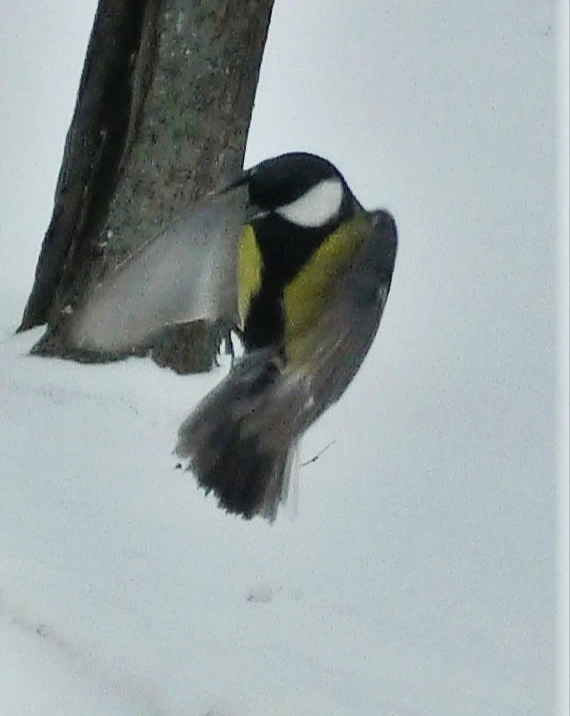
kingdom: Animalia
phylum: Chordata
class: Aves
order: Passeriformes
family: Paridae
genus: Parus
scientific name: Parus major
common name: Great tit
